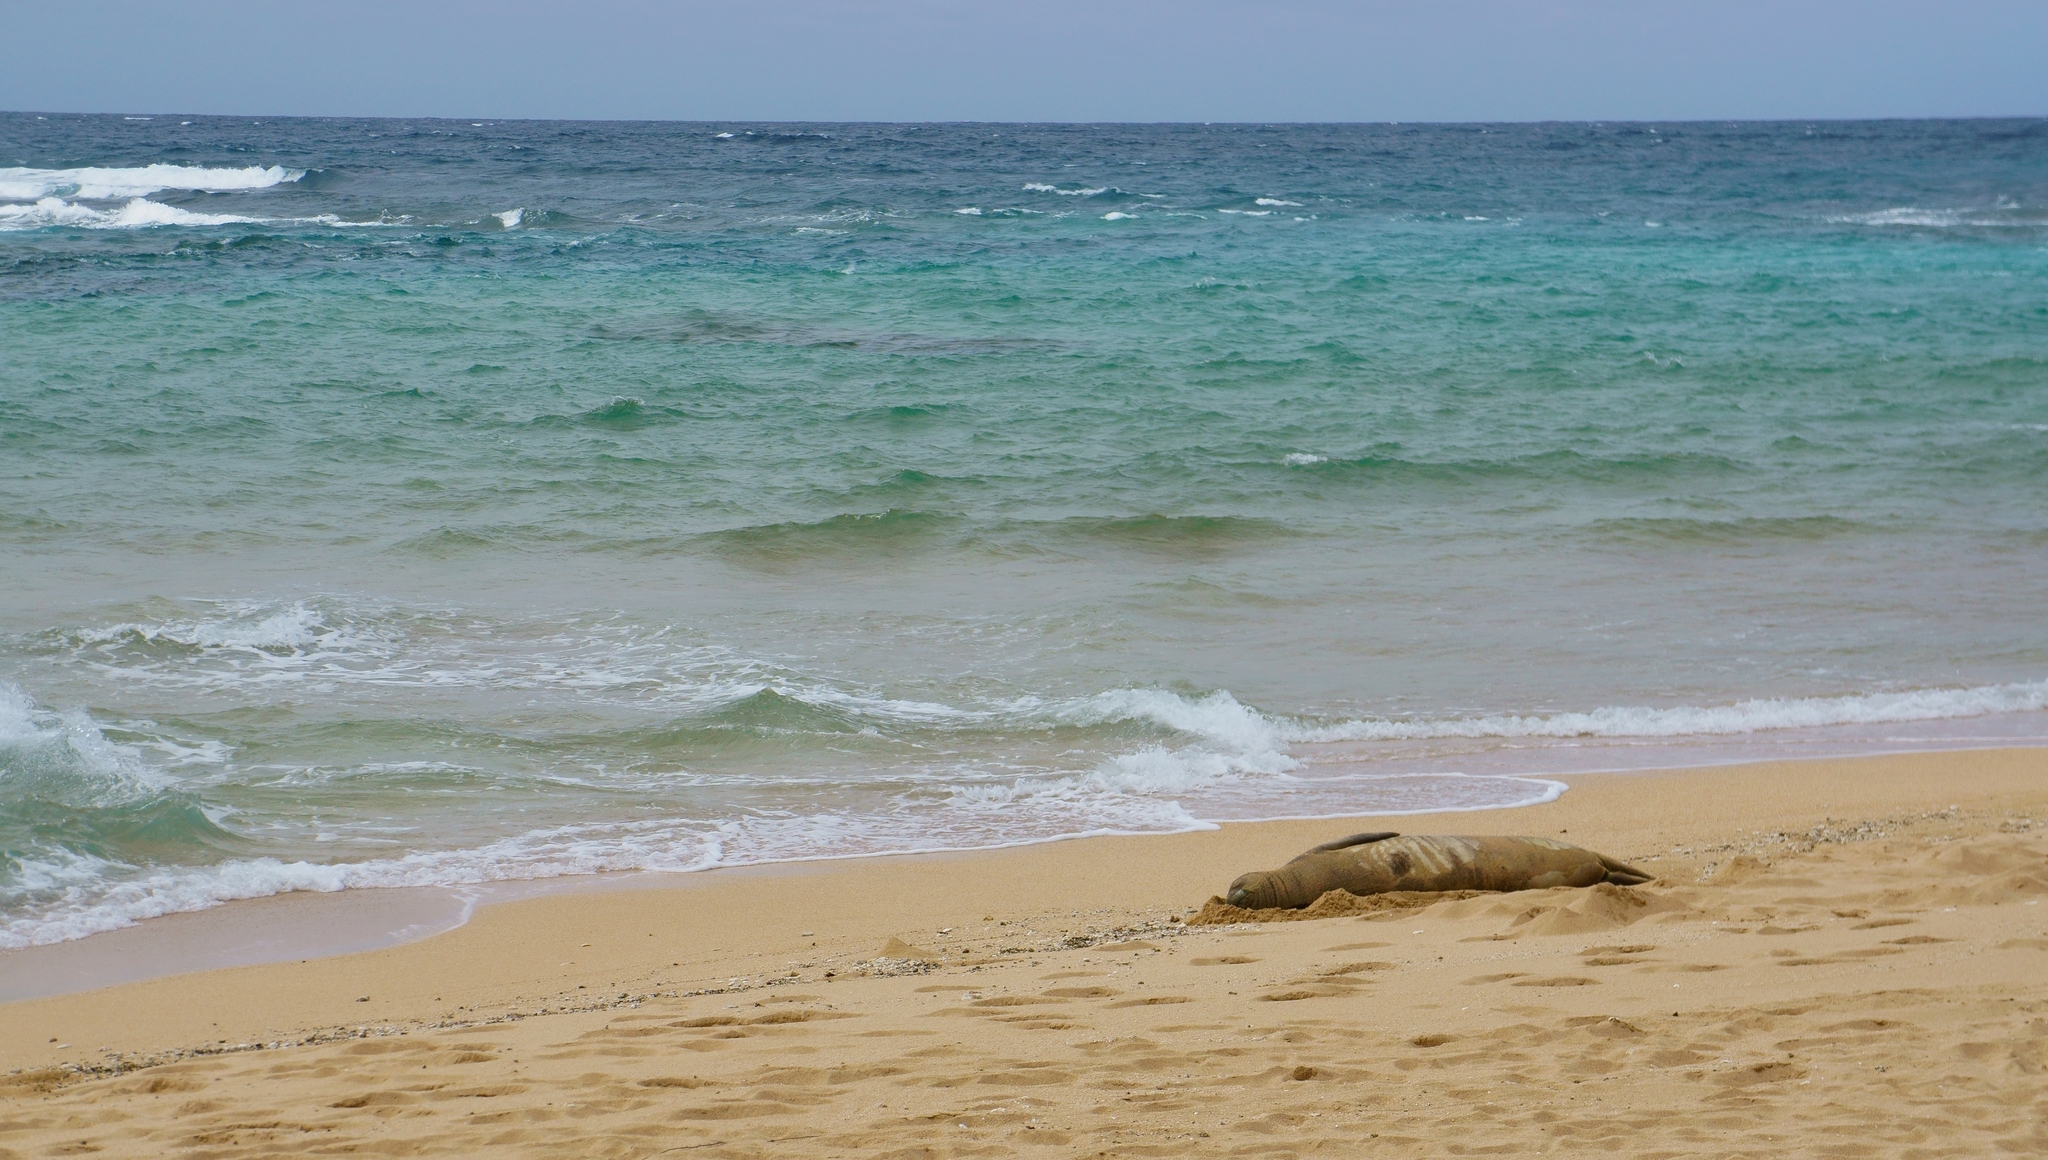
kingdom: Animalia
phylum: Chordata
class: Mammalia
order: Carnivora
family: Phocidae
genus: Neomonachus
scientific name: Neomonachus schauinslandi
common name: Hawaiian monk seal
